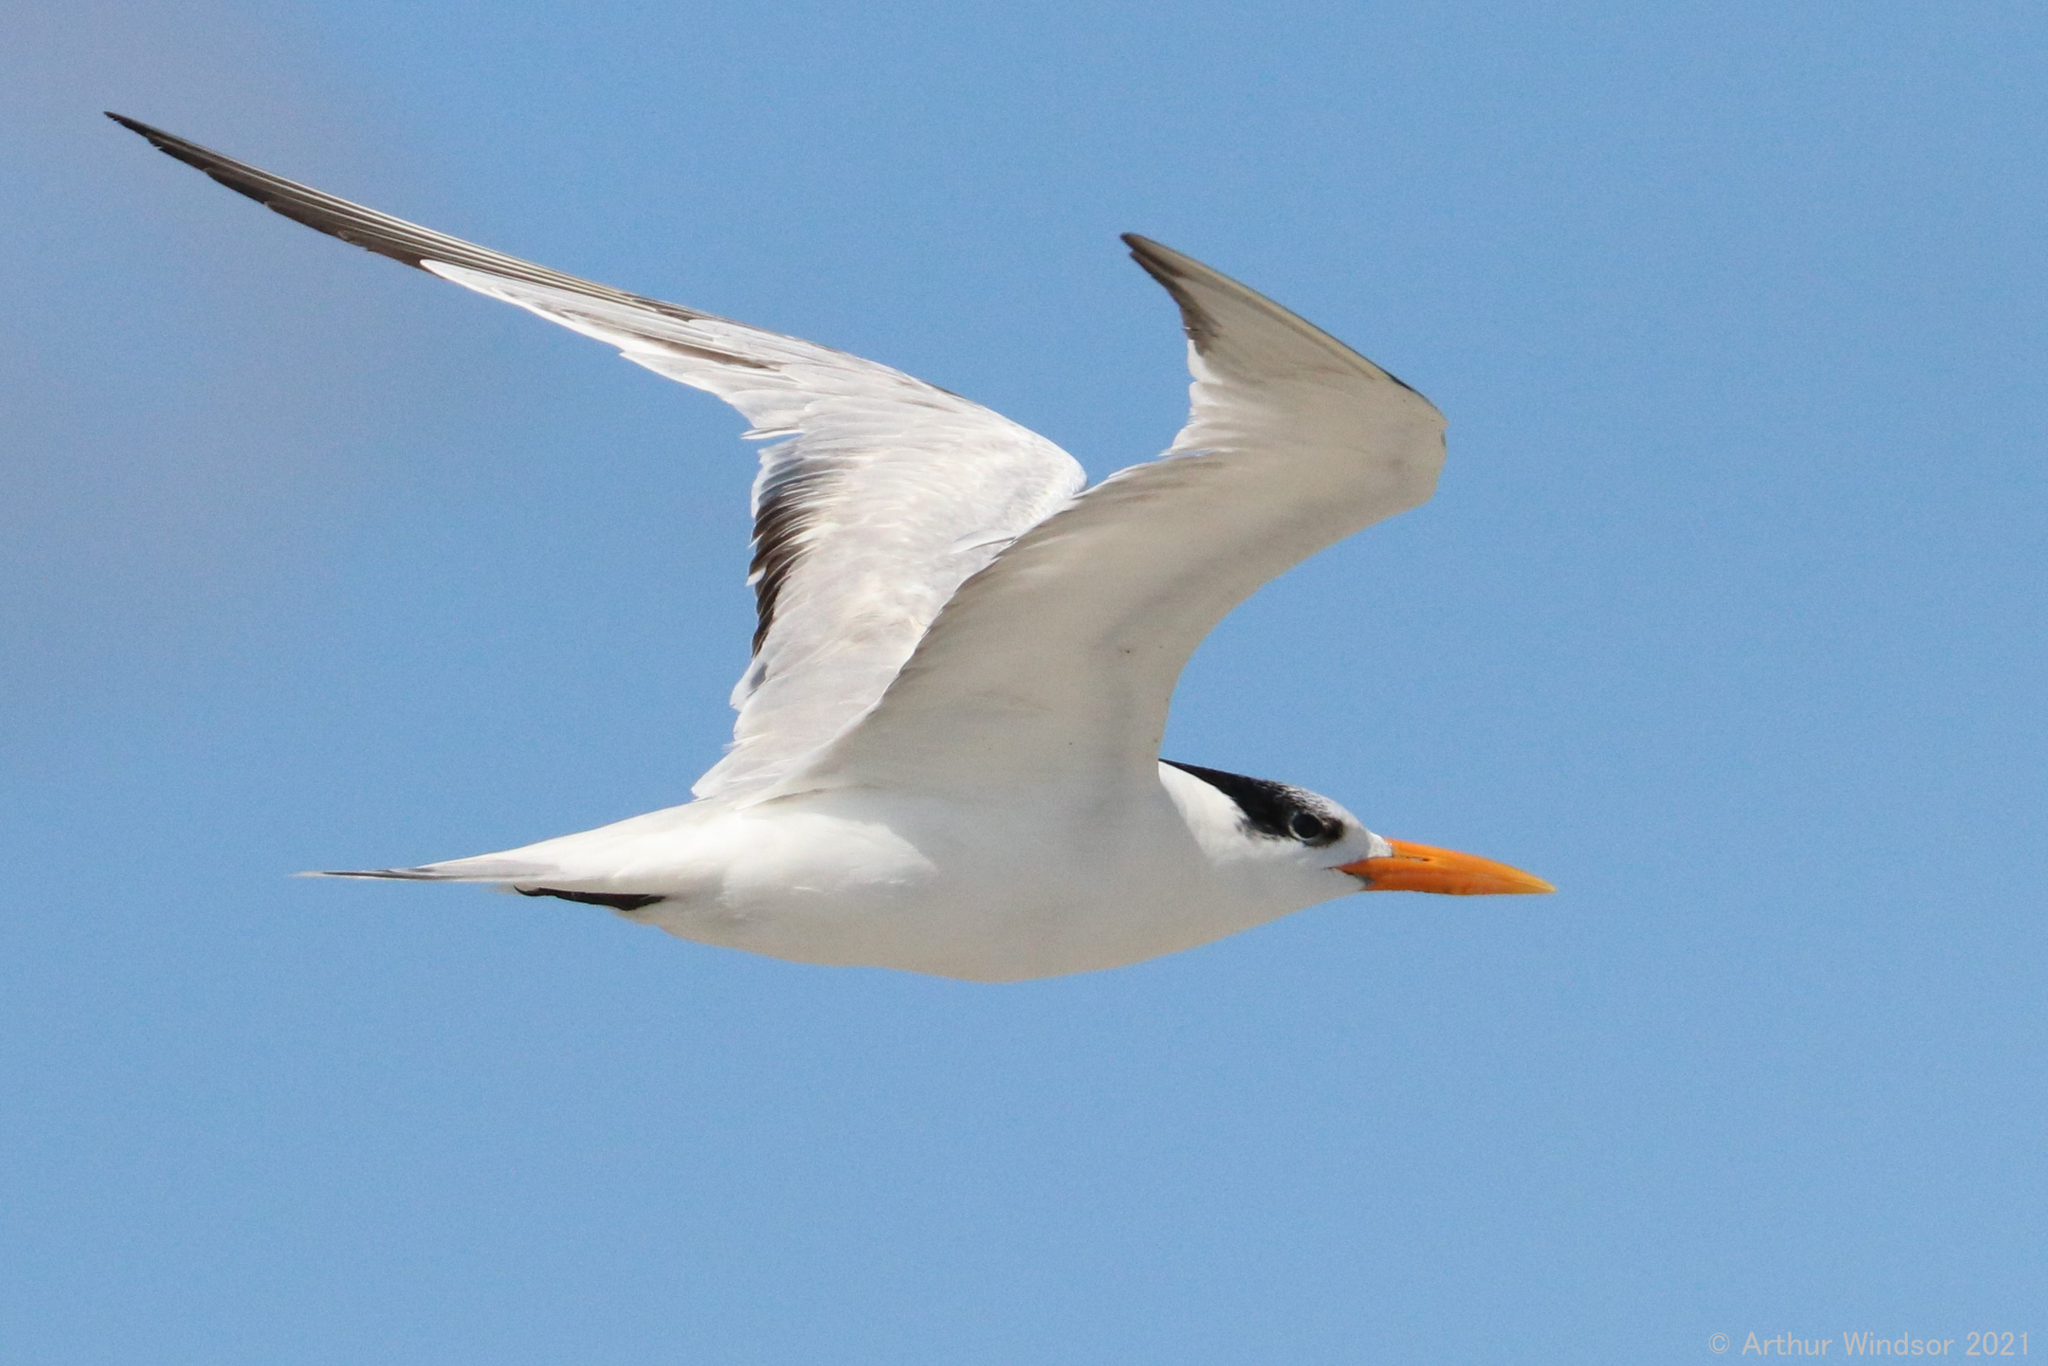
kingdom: Animalia
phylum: Chordata
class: Aves
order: Charadriiformes
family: Laridae
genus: Thalasseus
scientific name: Thalasseus maximus
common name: Royal tern
